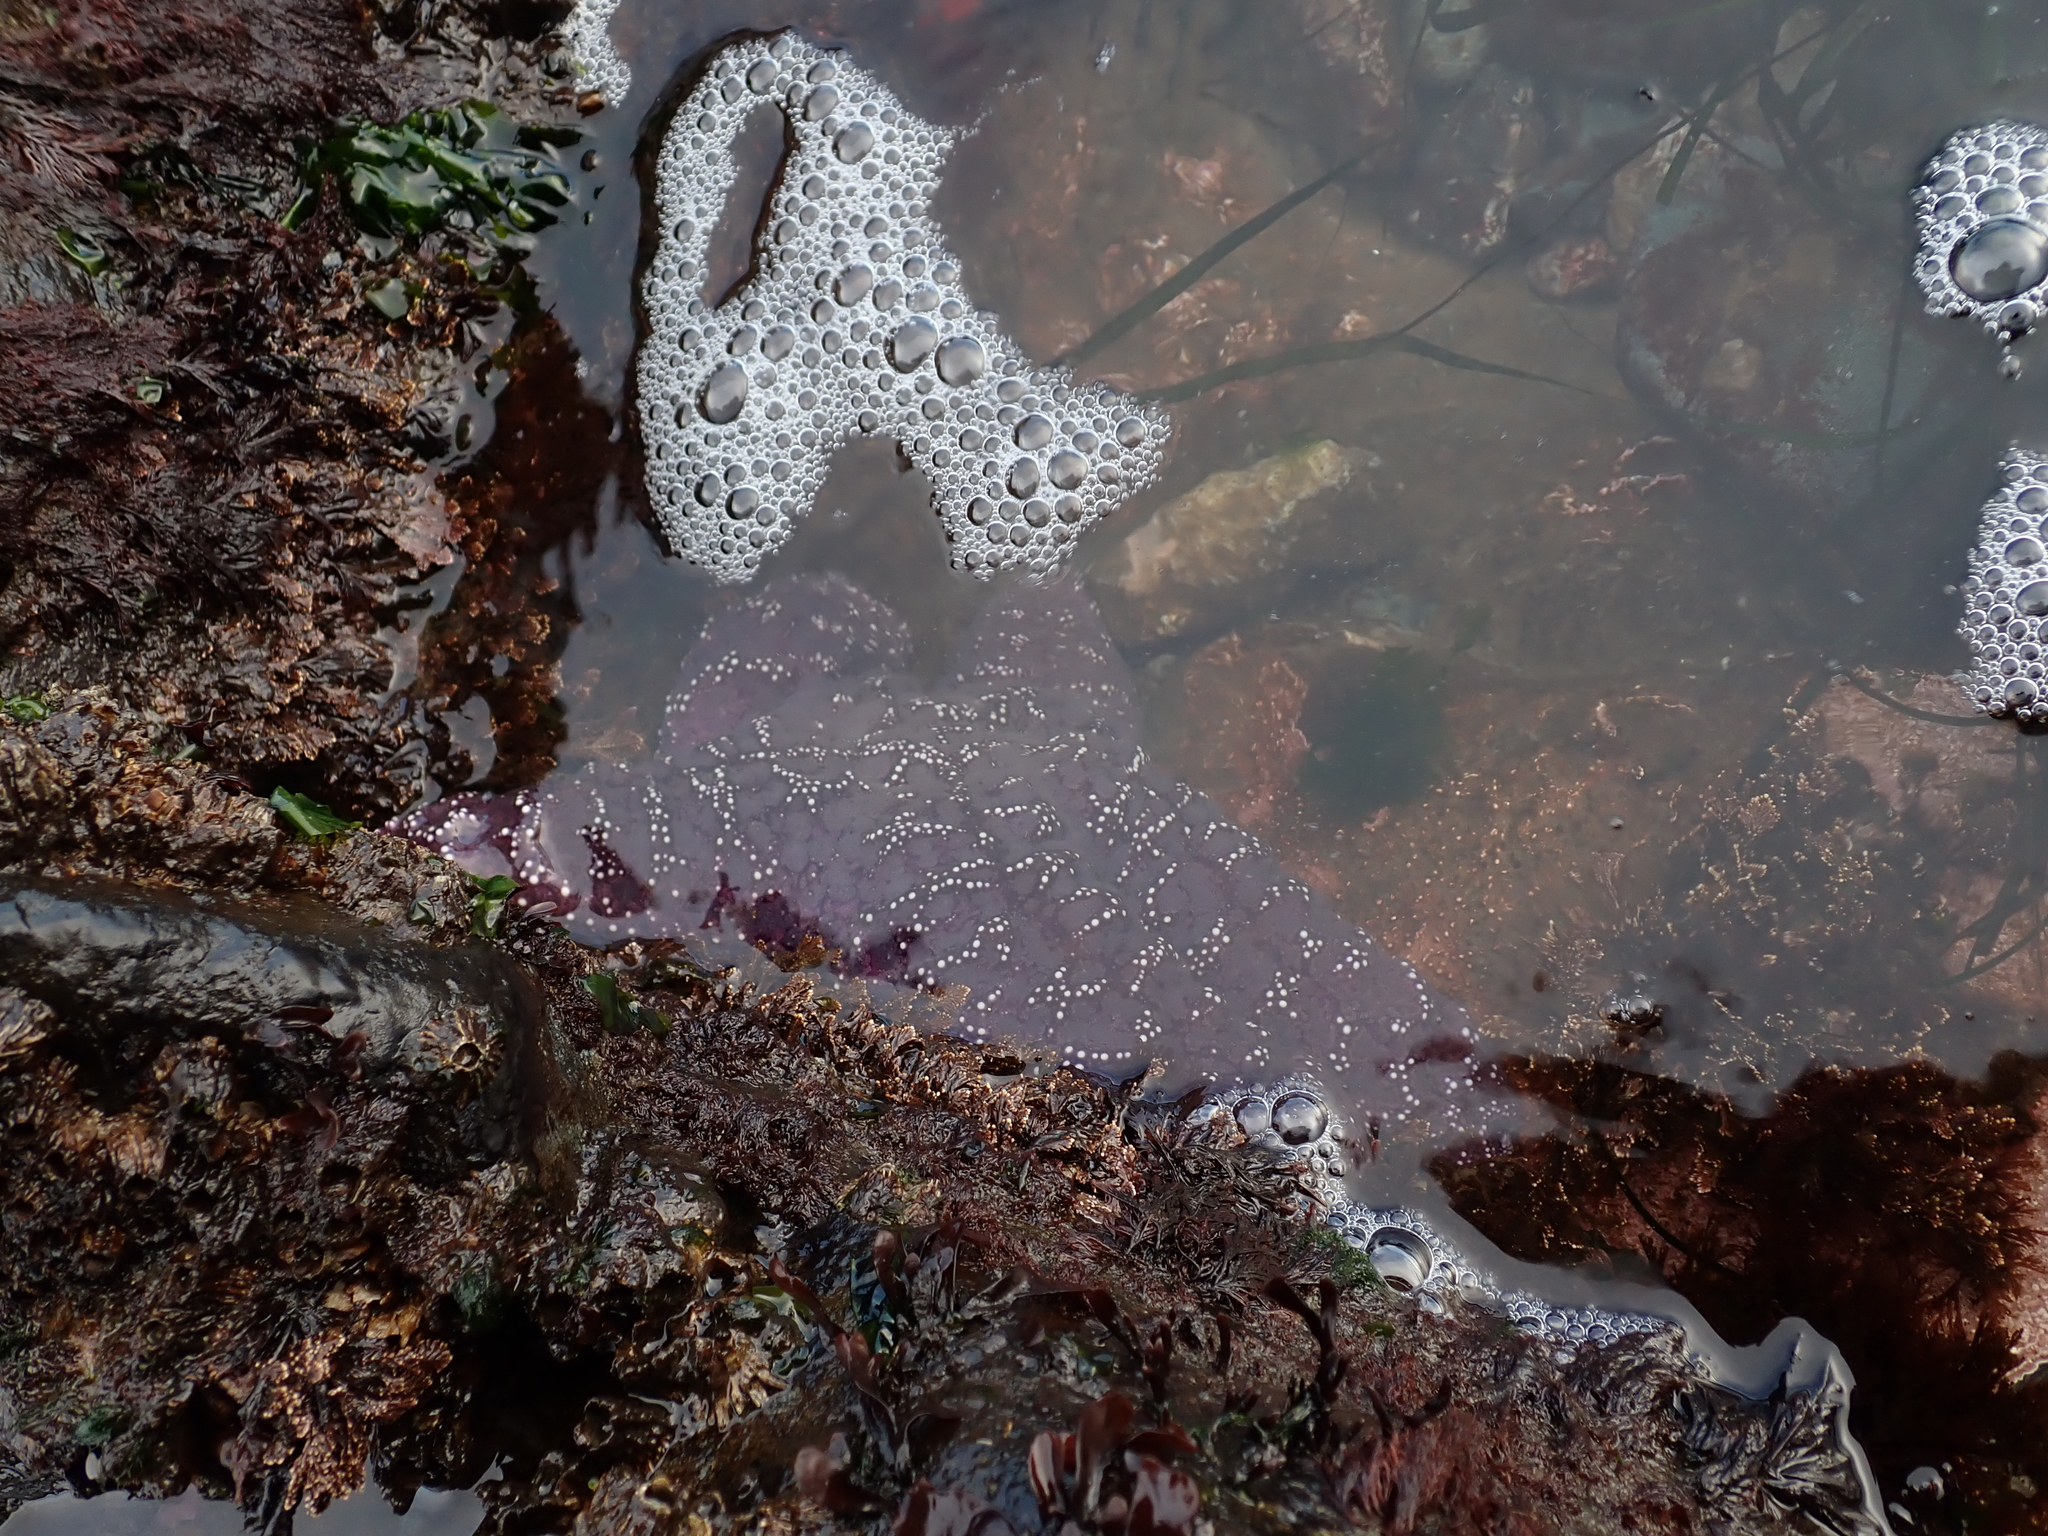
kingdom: Animalia
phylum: Echinodermata
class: Asteroidea
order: Forcipulatida
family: Asteriidae
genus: Pisaster
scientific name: Pisaster ochraceus
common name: Ochre stars
